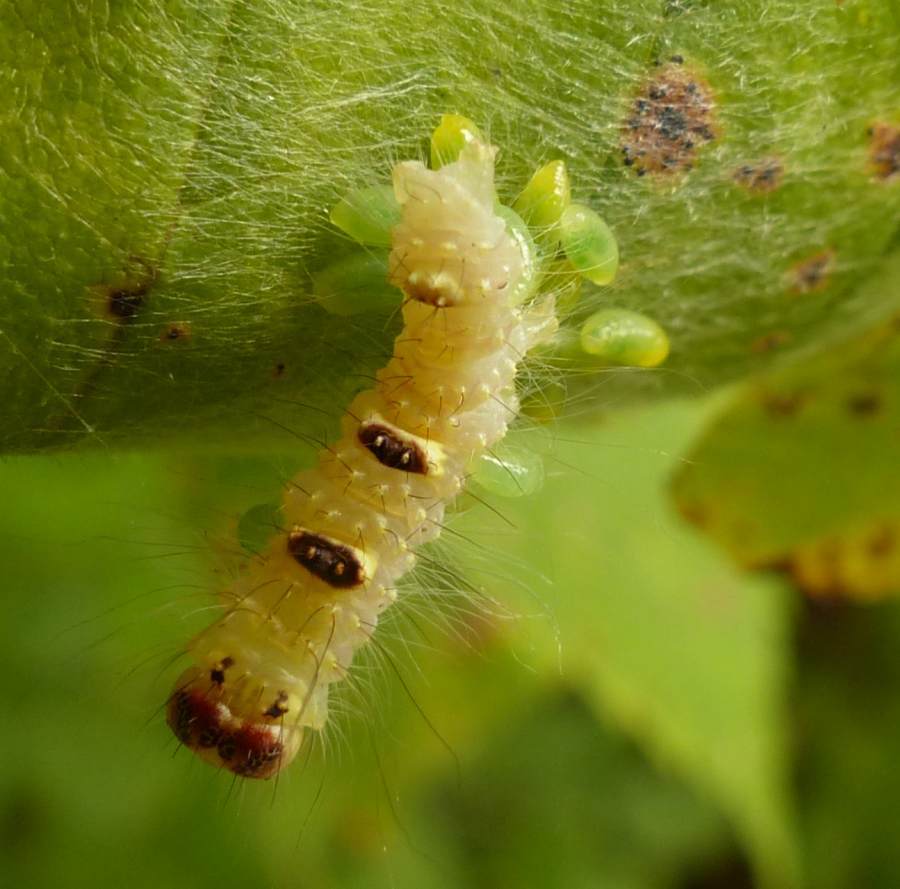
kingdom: Animalia
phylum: Arthropoda
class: Insecta
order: Lepidoptera
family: Noctuidae
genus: Acronicta
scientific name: Acronicta morula
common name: Ochre dagger
